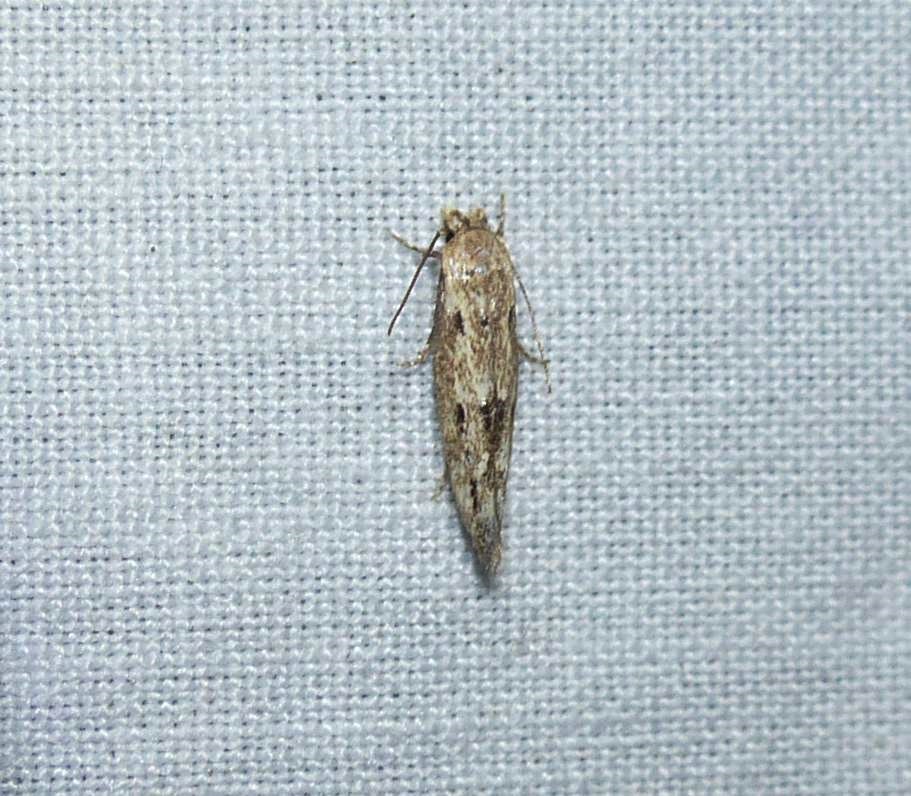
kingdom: Animalia
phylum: Arthropoda
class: Insecta
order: Lepidoptera
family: Momphidae
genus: Mompha
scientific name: Mompha brevivittella
